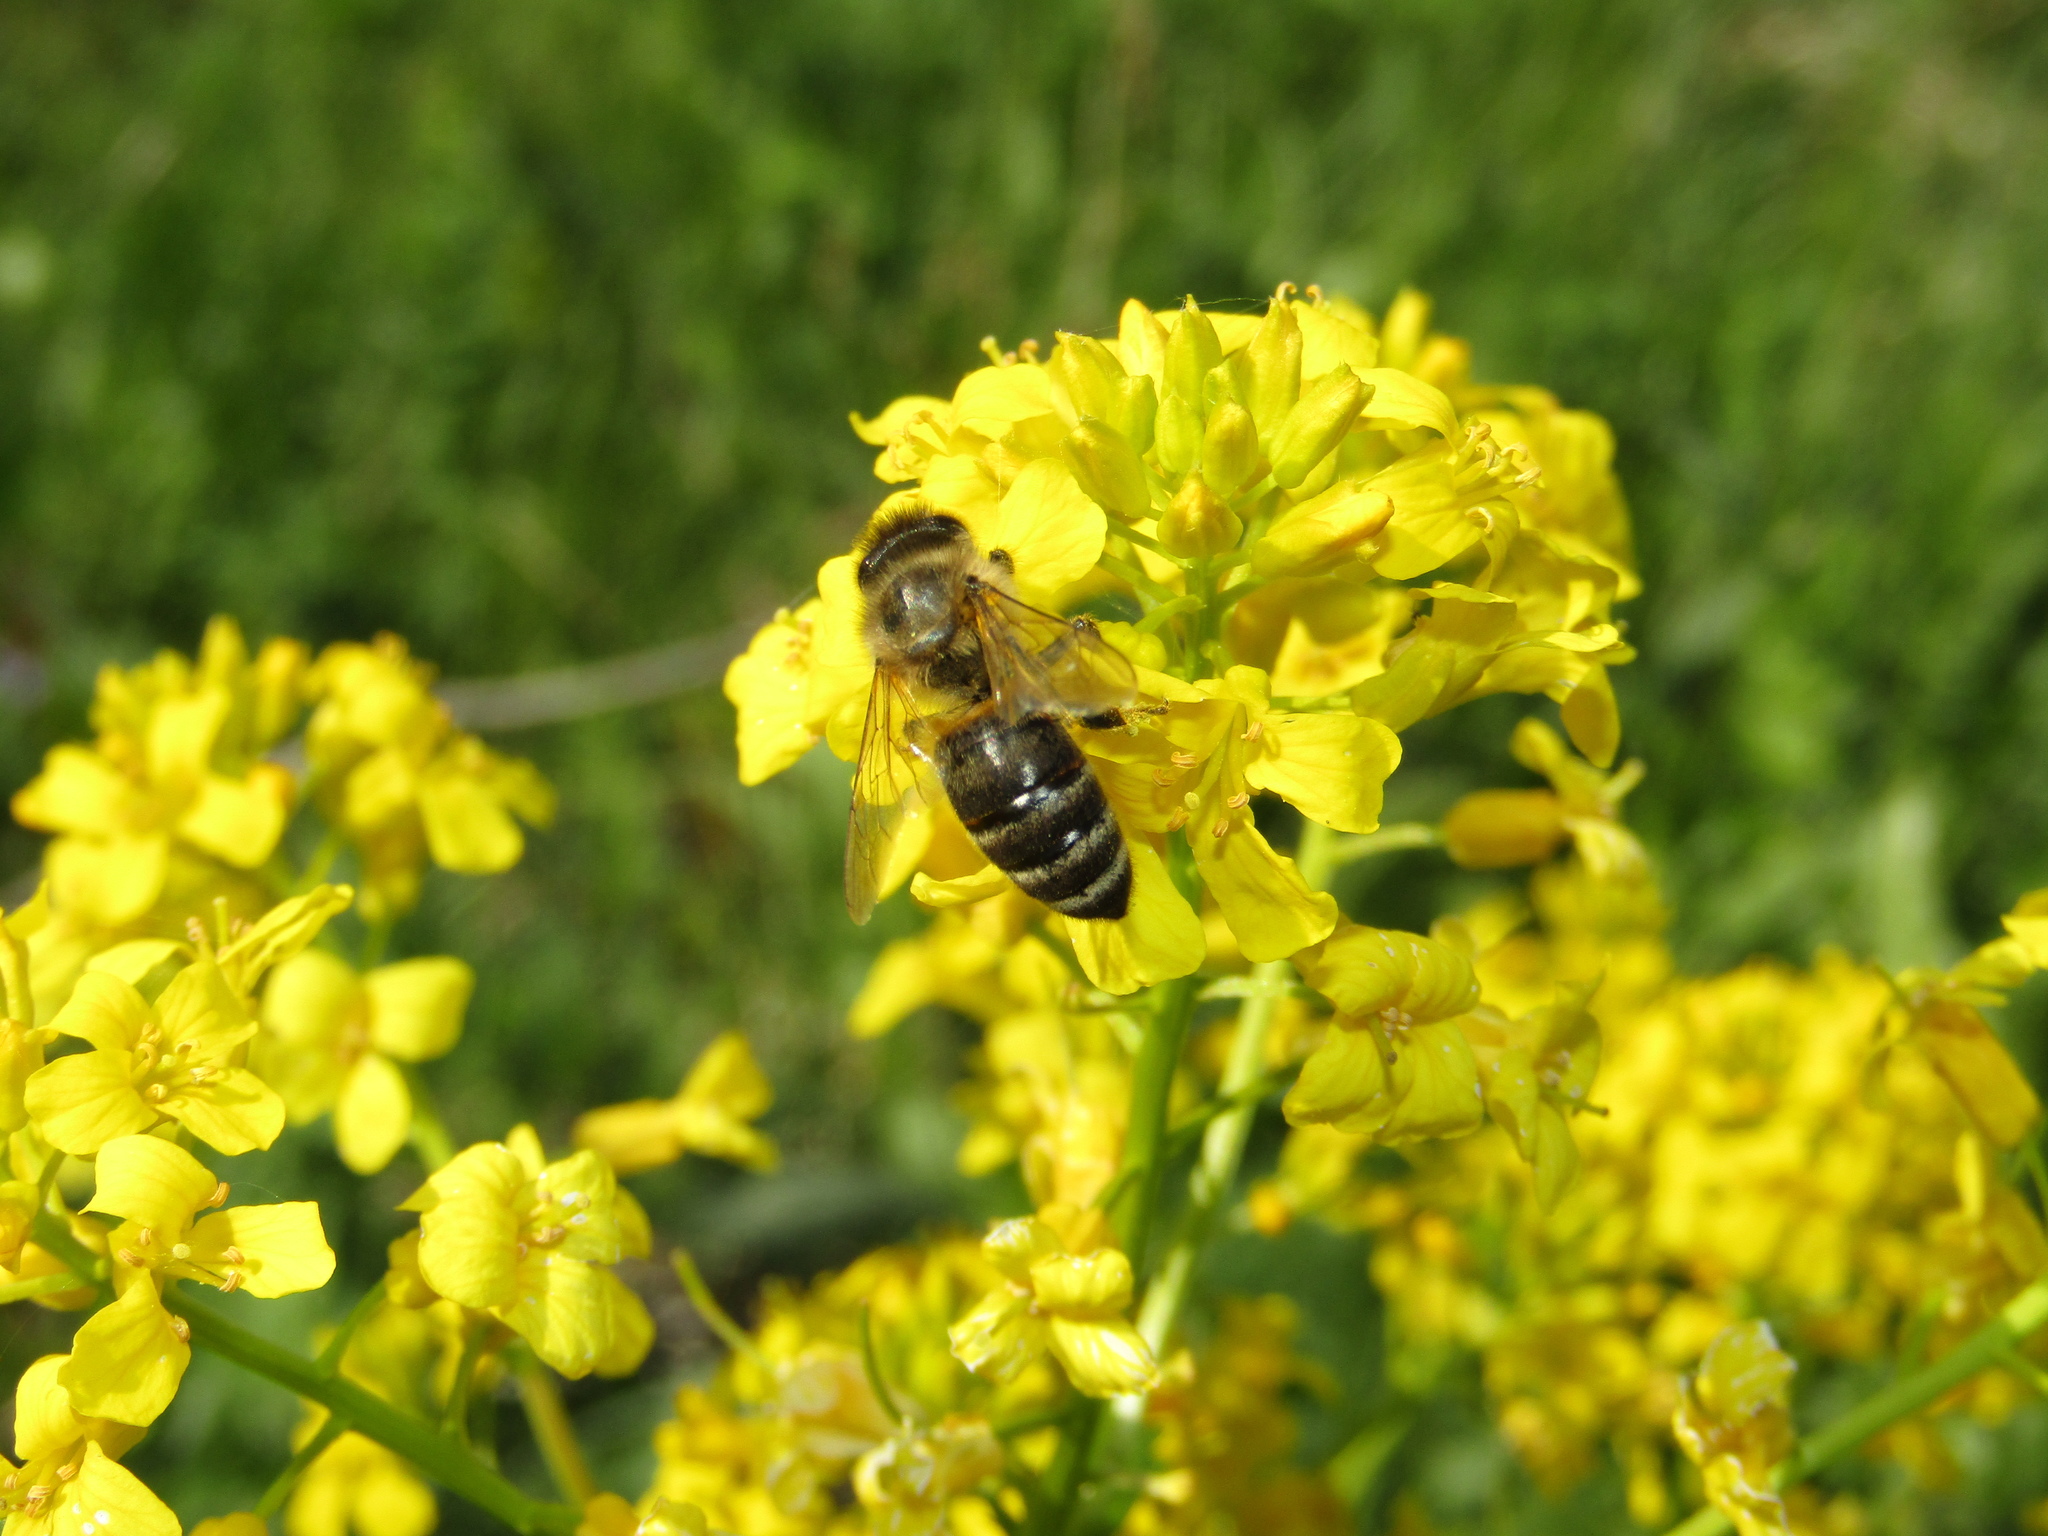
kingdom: Animalia
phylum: Arthropoda
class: Insecta
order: Hymenoptera
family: Apidae
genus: Apis
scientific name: Apis mellifera
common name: Honey bee
